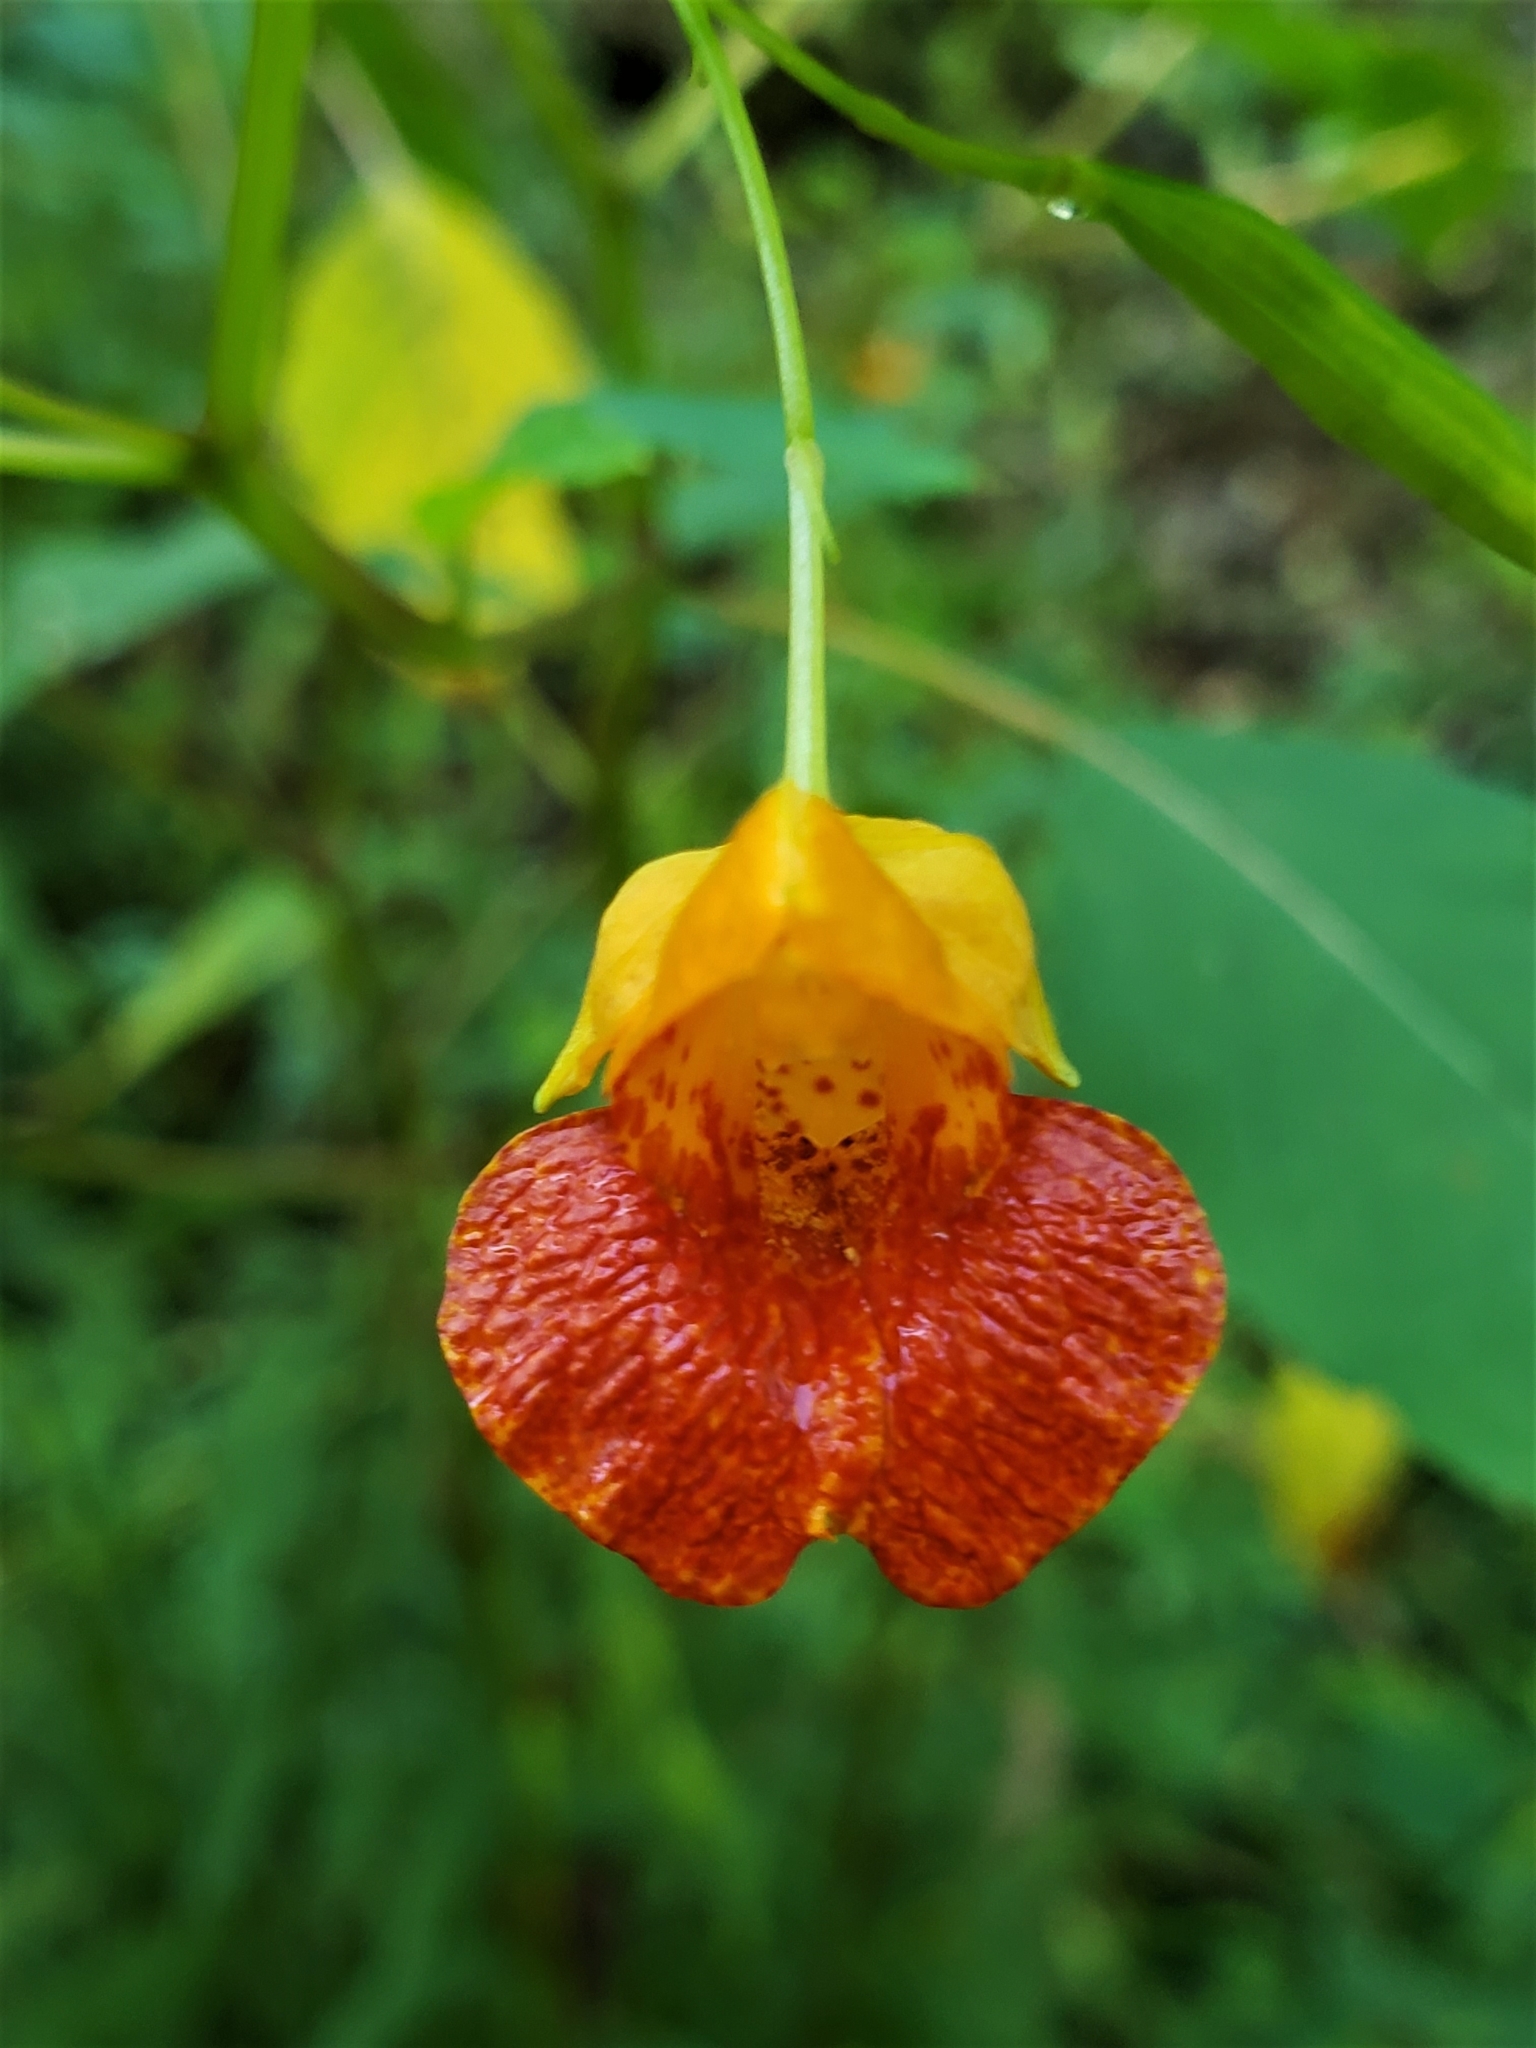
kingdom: Plantae
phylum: Tracheophyta
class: Magnoliopsida
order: Ericales
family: Balsaminaceae
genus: Impatiens
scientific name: Impatiens capensis
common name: Orange balsam
